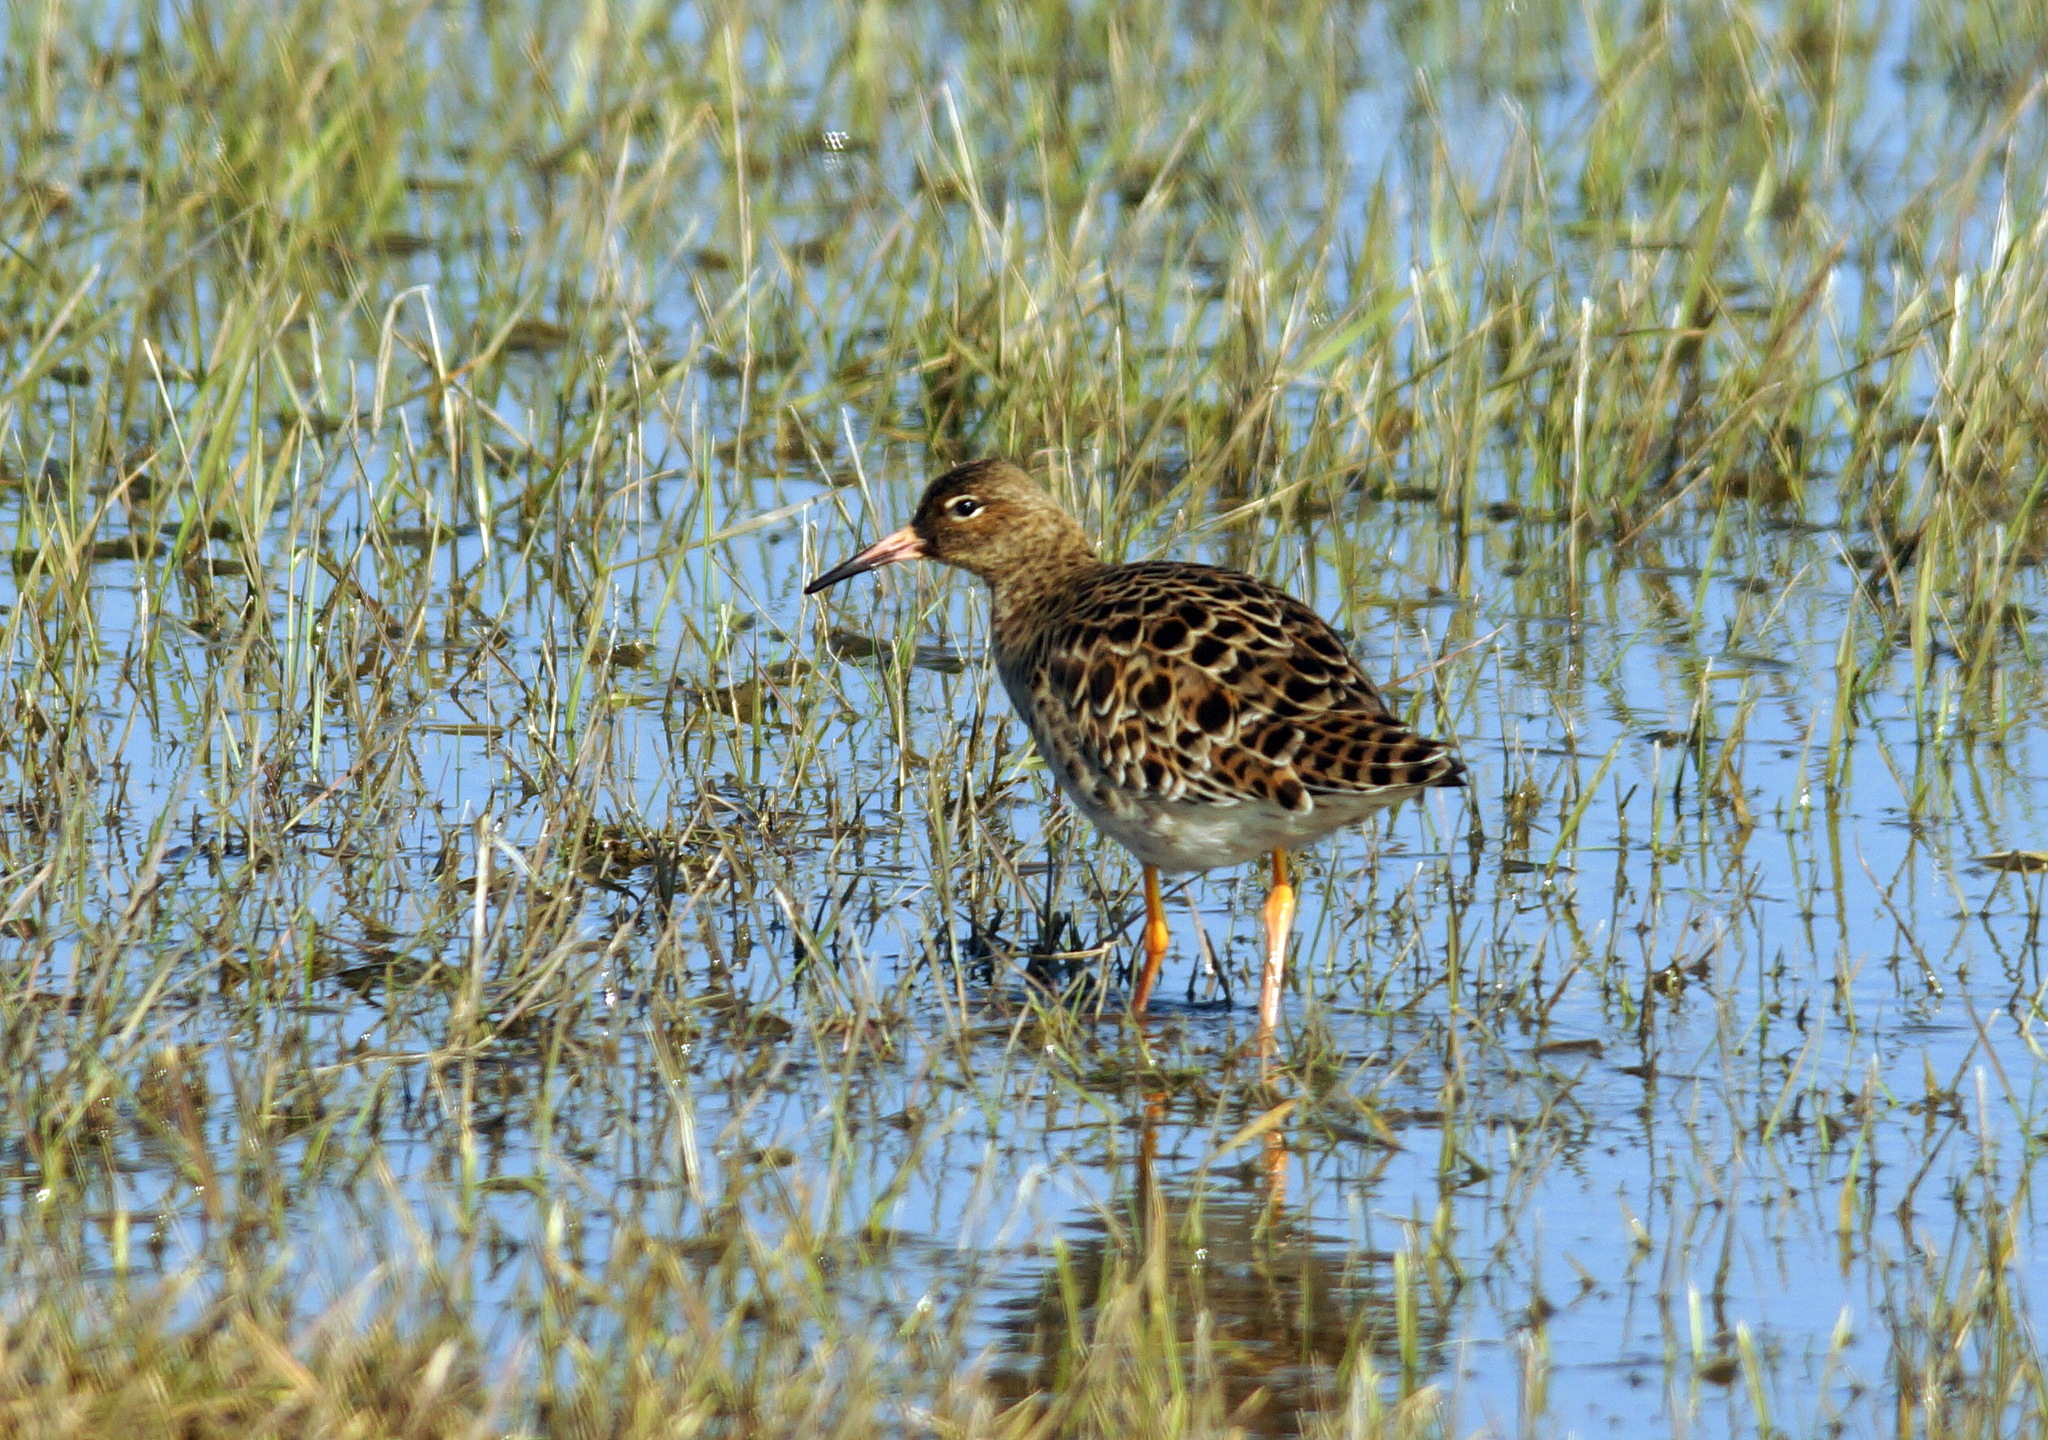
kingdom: Animalia
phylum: Chordata
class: Aves
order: Charadriiformes
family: Scolopacidae
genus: Calidris
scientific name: Calidris pugnax
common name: Ruff
